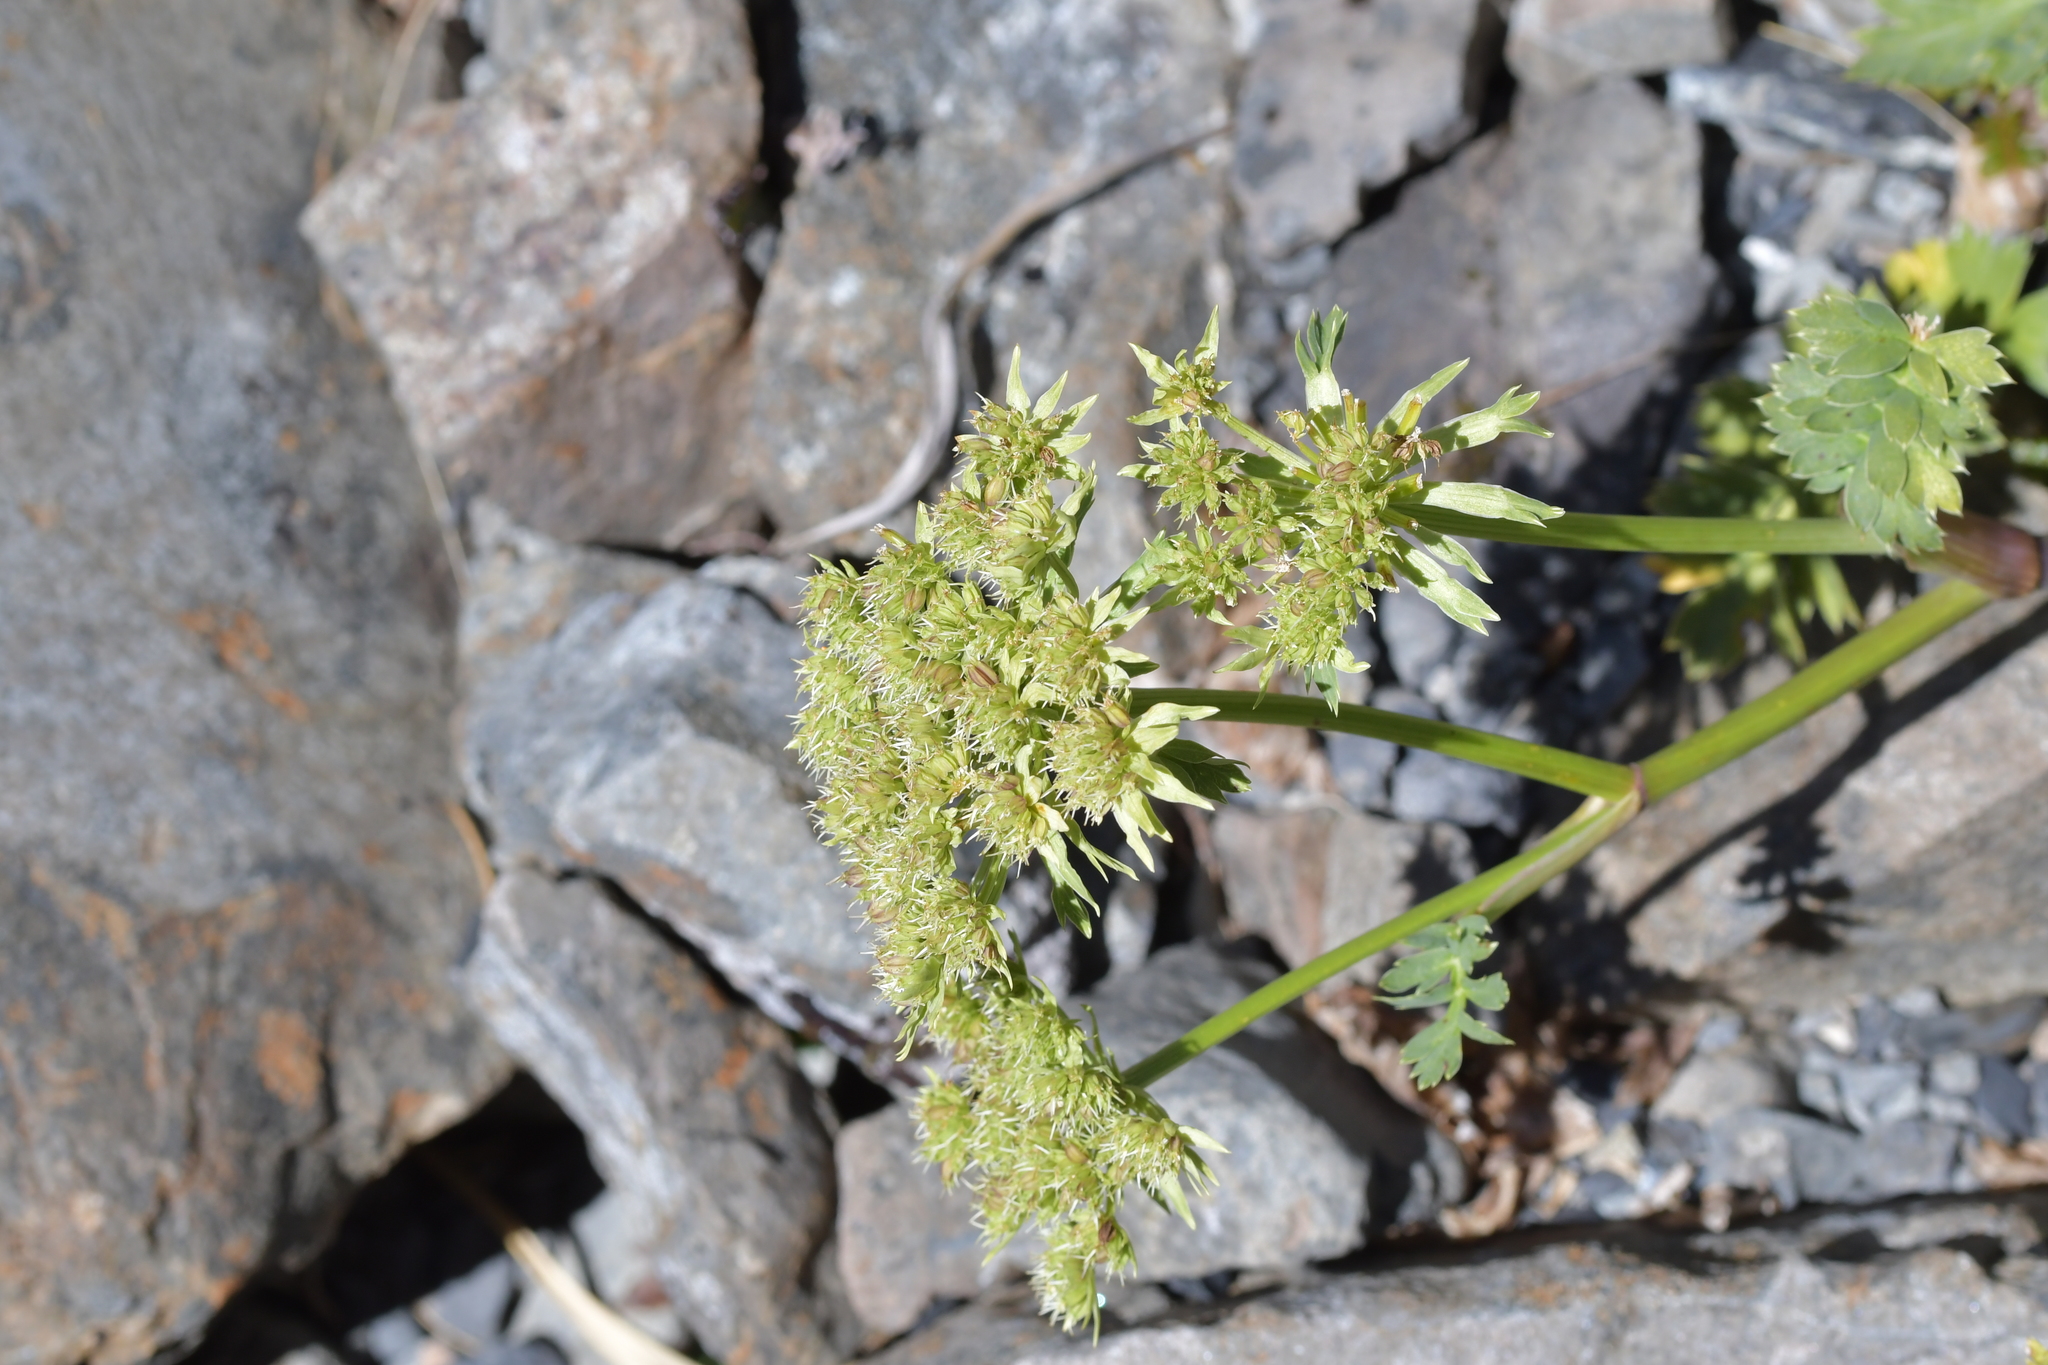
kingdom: Plantae
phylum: Tracheophyta
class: Magnoliopsida
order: Apiales
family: Apiaceae
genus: Anisotome
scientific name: Anisotome pilifera
